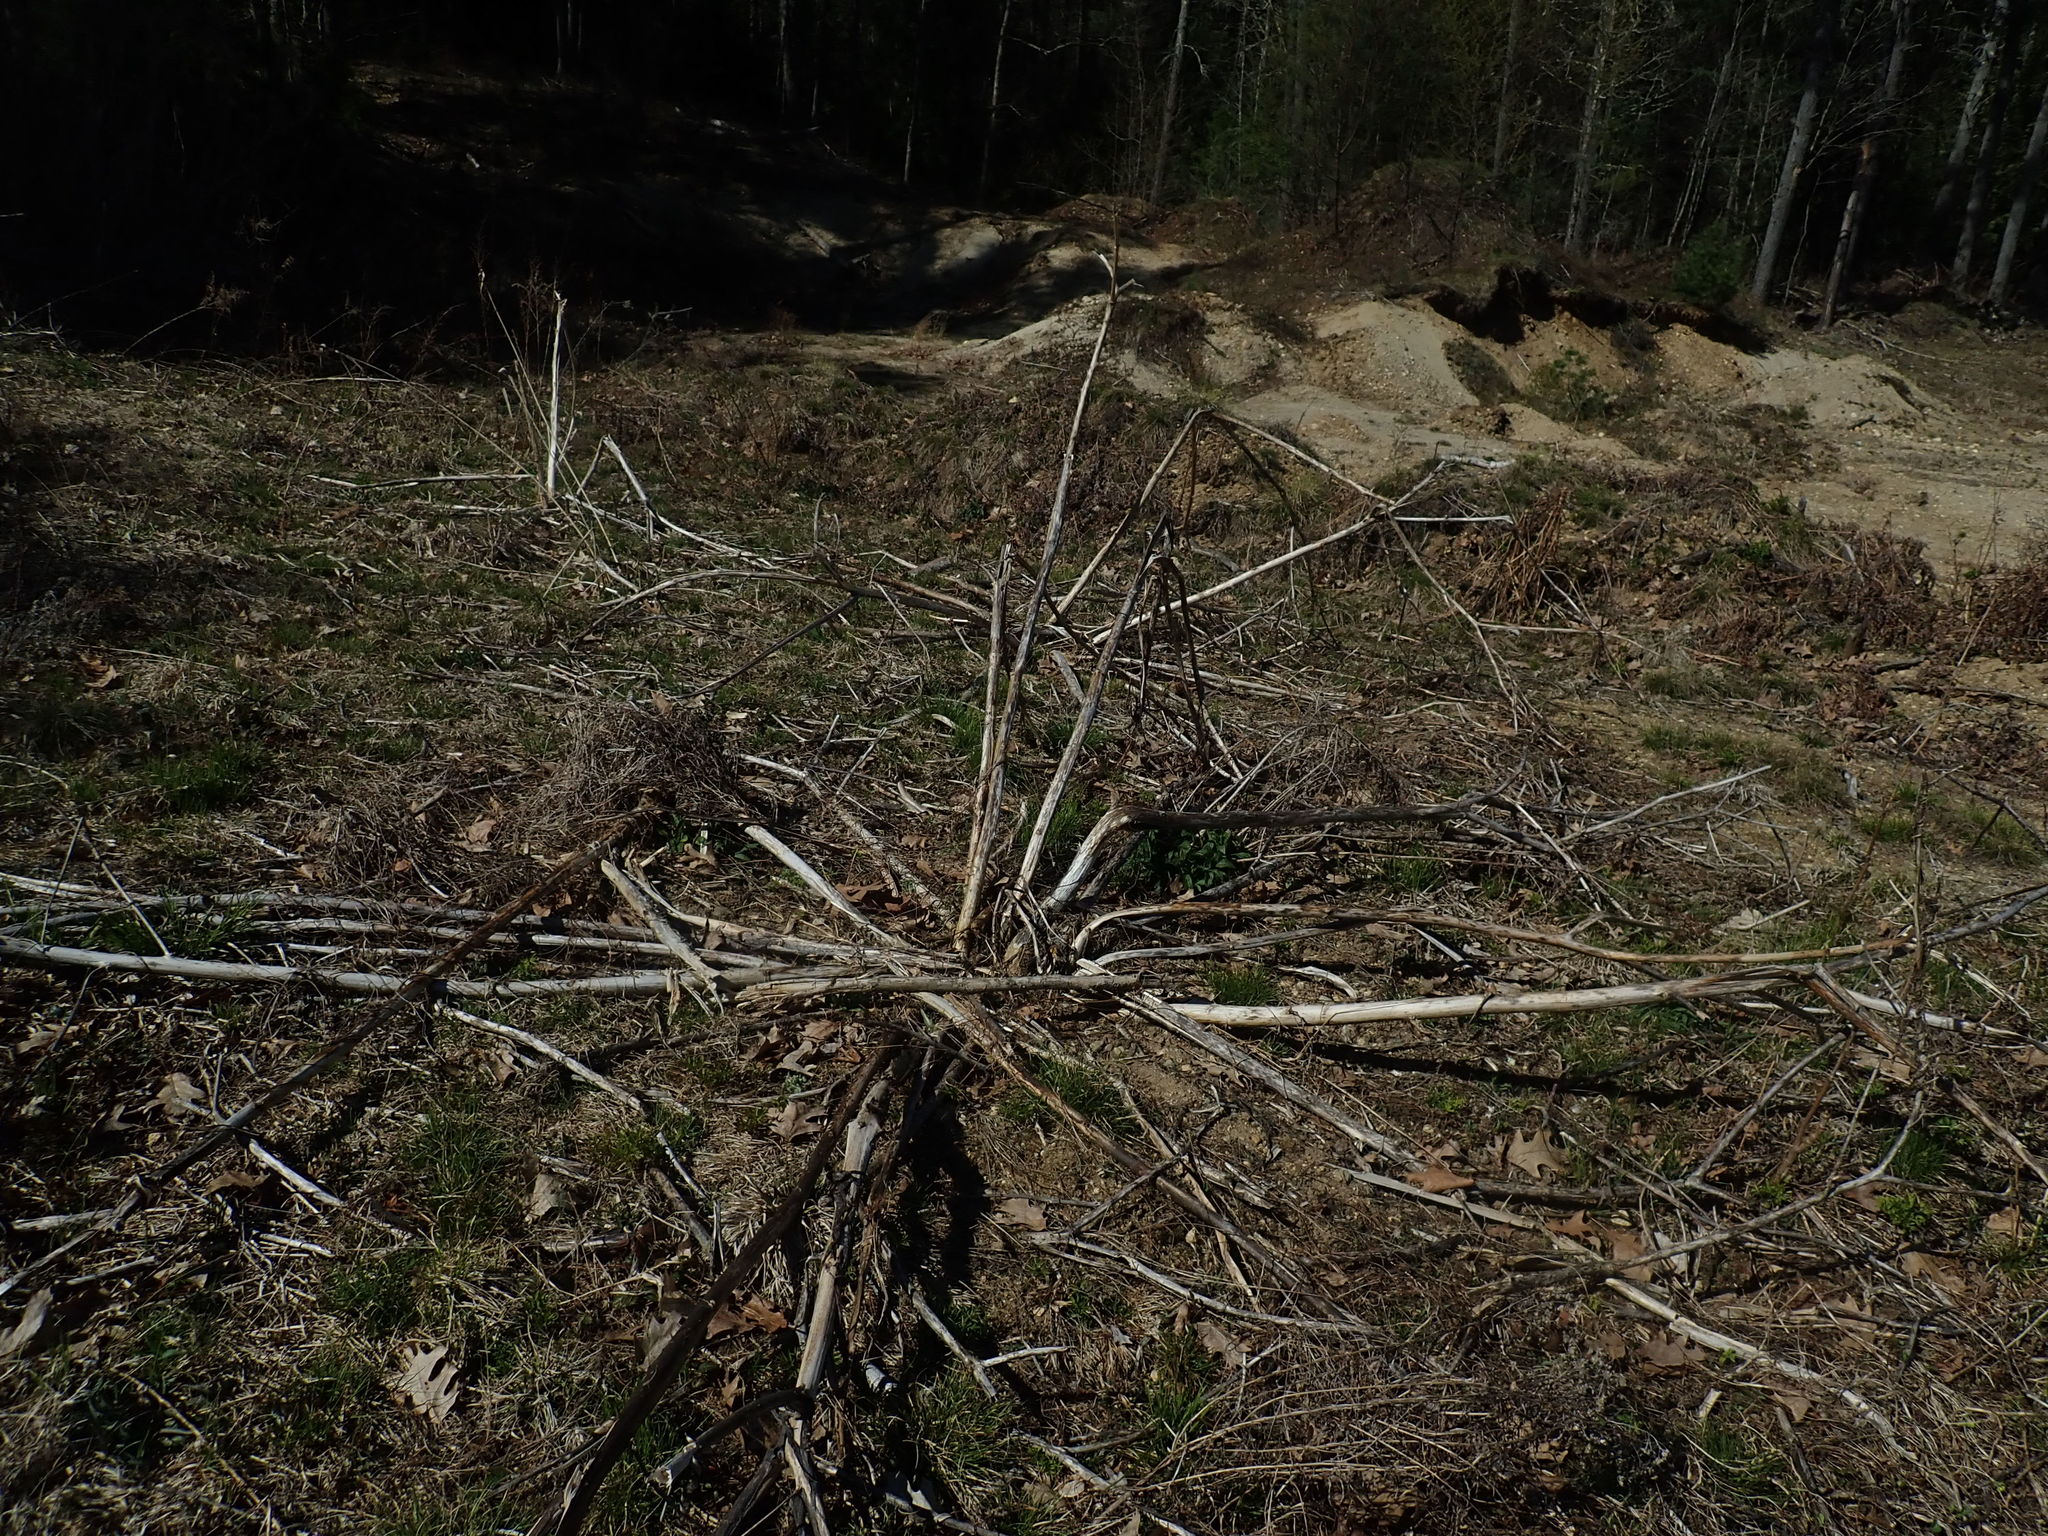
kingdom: Plantae
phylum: Tracheophyta
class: Magnoliopsida
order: Caryophyllales
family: Phytolaccaceae
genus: Phytolacca
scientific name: Phytolacca americana
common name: American pokeweed
